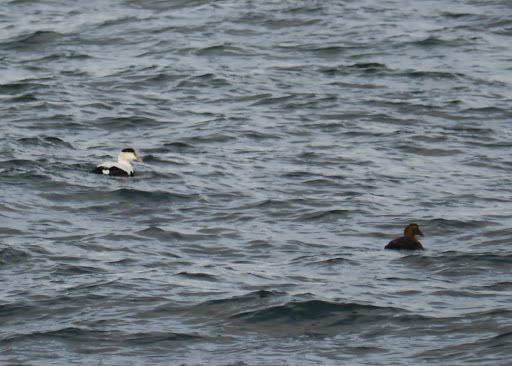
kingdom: Animalia
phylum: Chordata
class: Aves
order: Anseriformes
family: Anatidae
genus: Somateria
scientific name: Somateria mollissima
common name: Common eider
